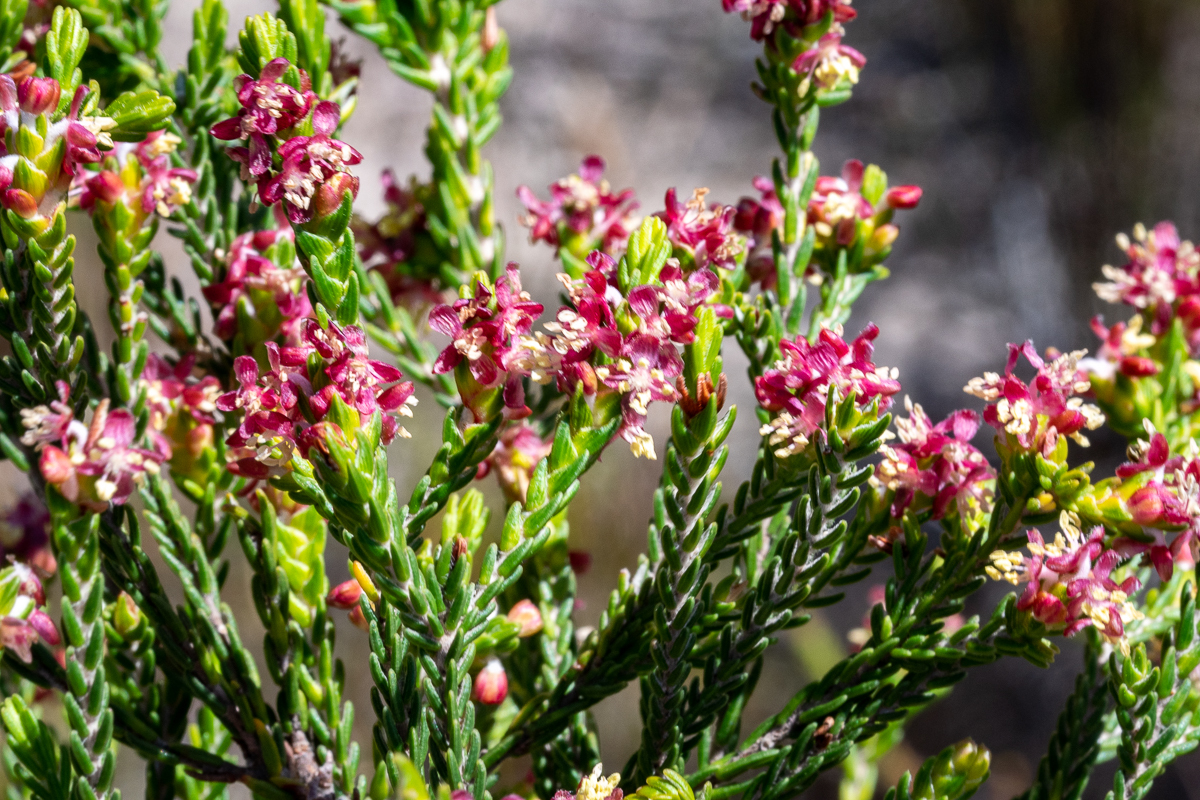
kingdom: Plantae
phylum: Tracheophyta
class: Magnoliopsida
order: Malvales
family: Thymelaeaceae
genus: Passerina
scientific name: Passerina corymbosa
